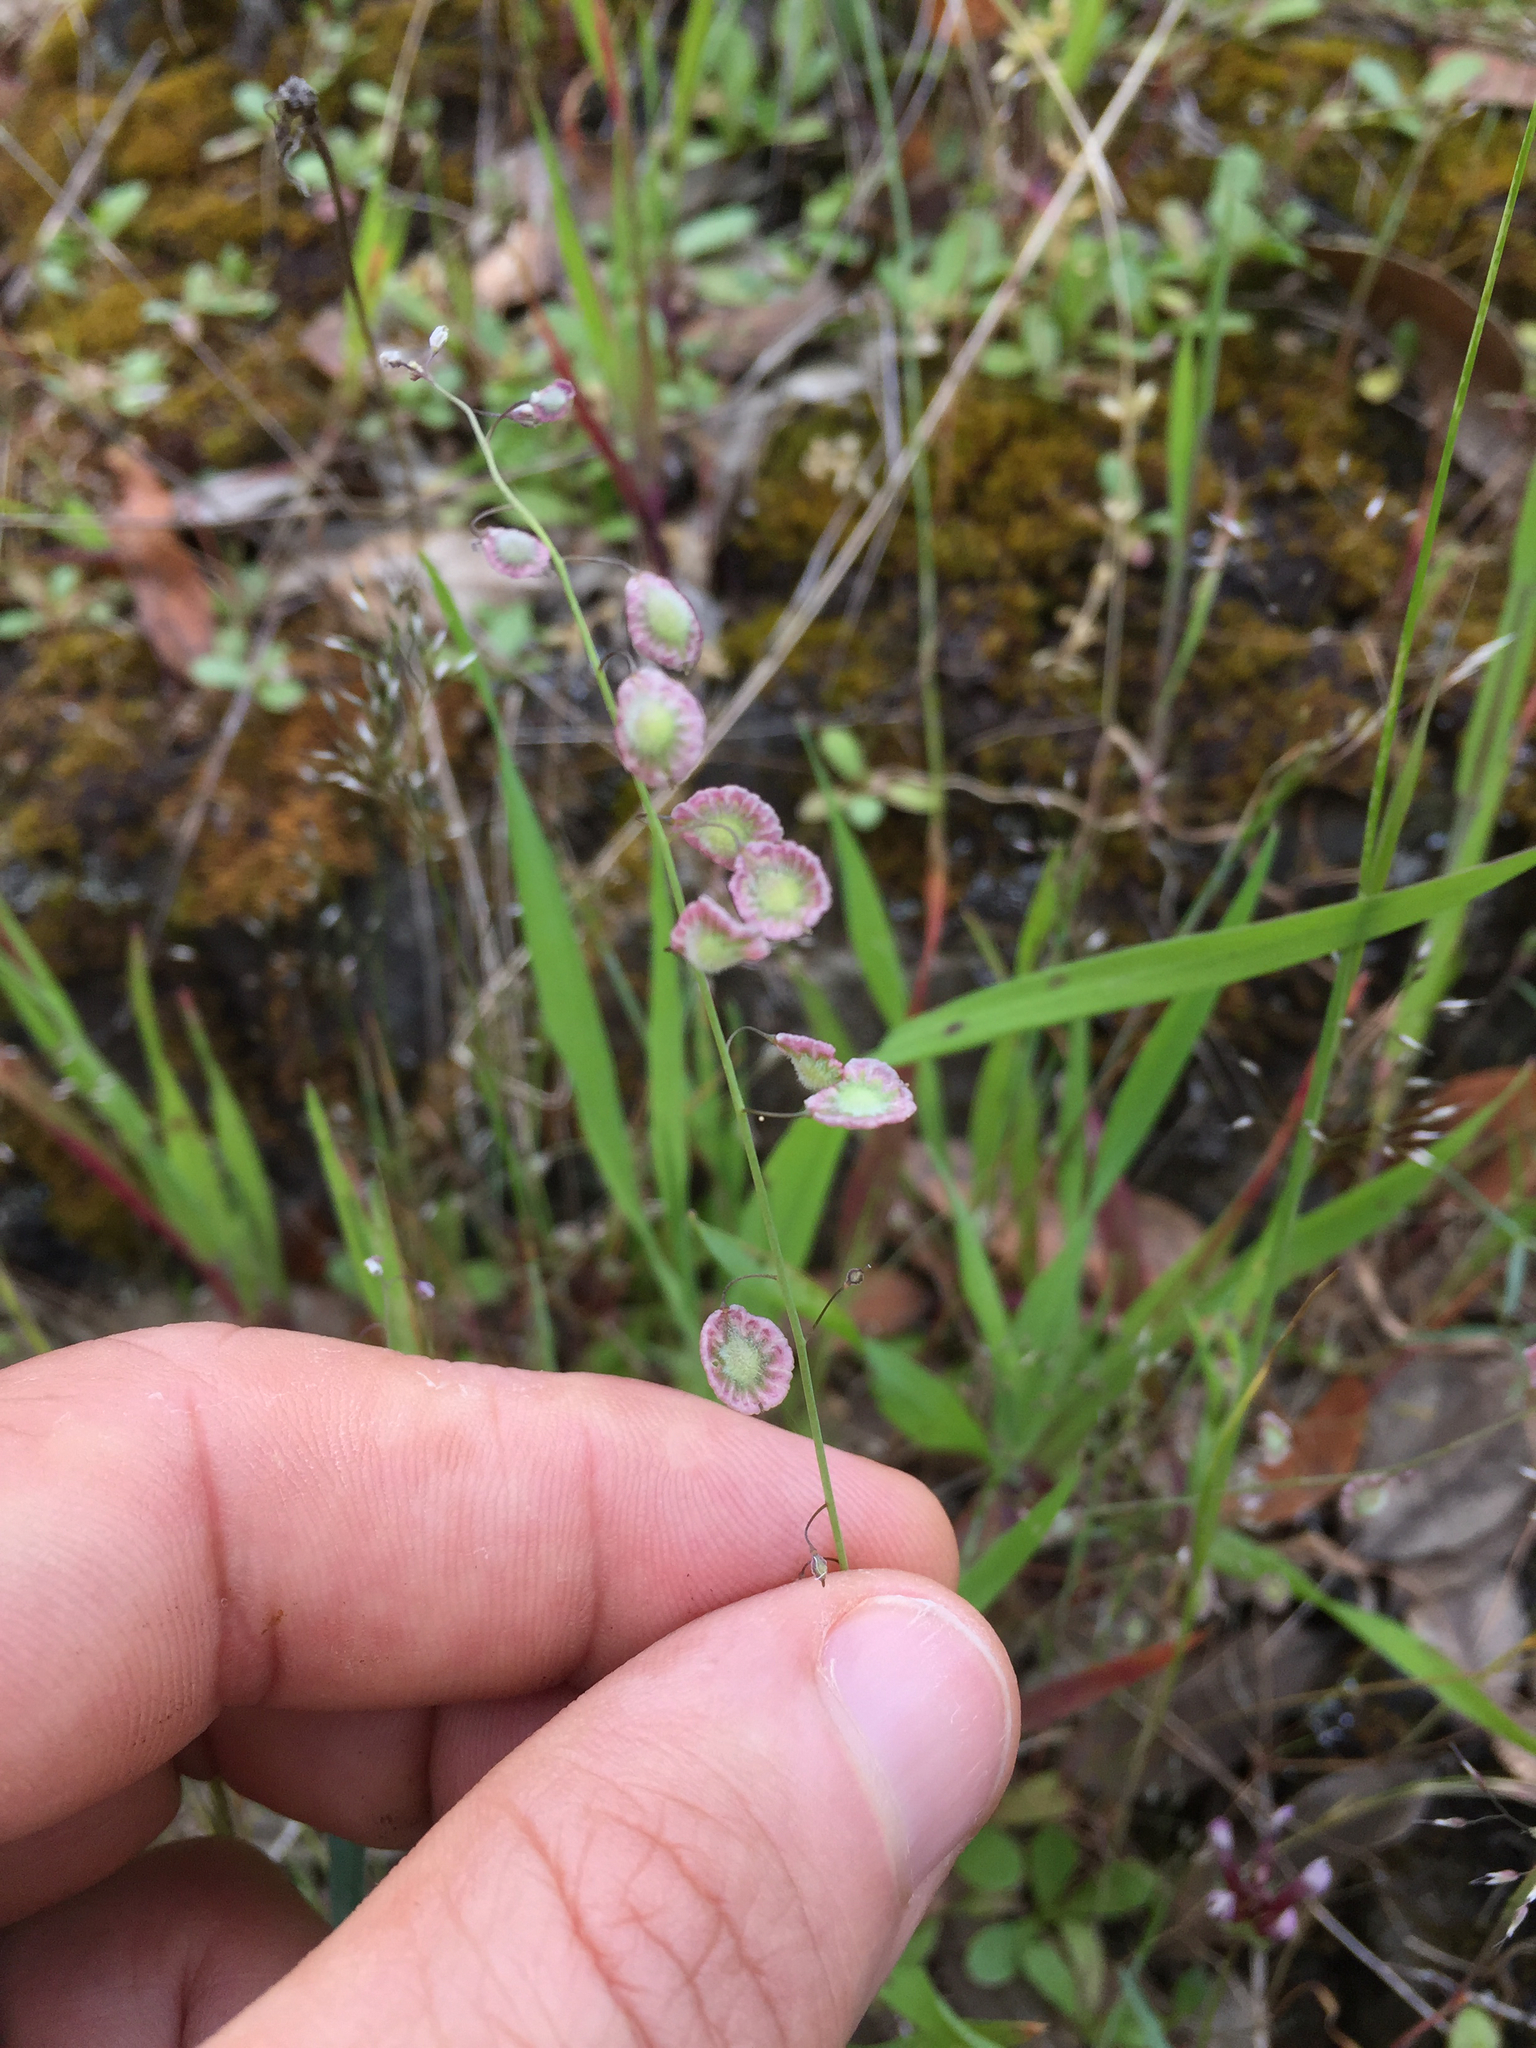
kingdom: Plantae
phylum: Tracheophyta
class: Magnoliopsida
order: Brassicales
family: Brassicaceae
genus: Thysanocarpus
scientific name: Thysanocarpus curvipes
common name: Sand fringepod
